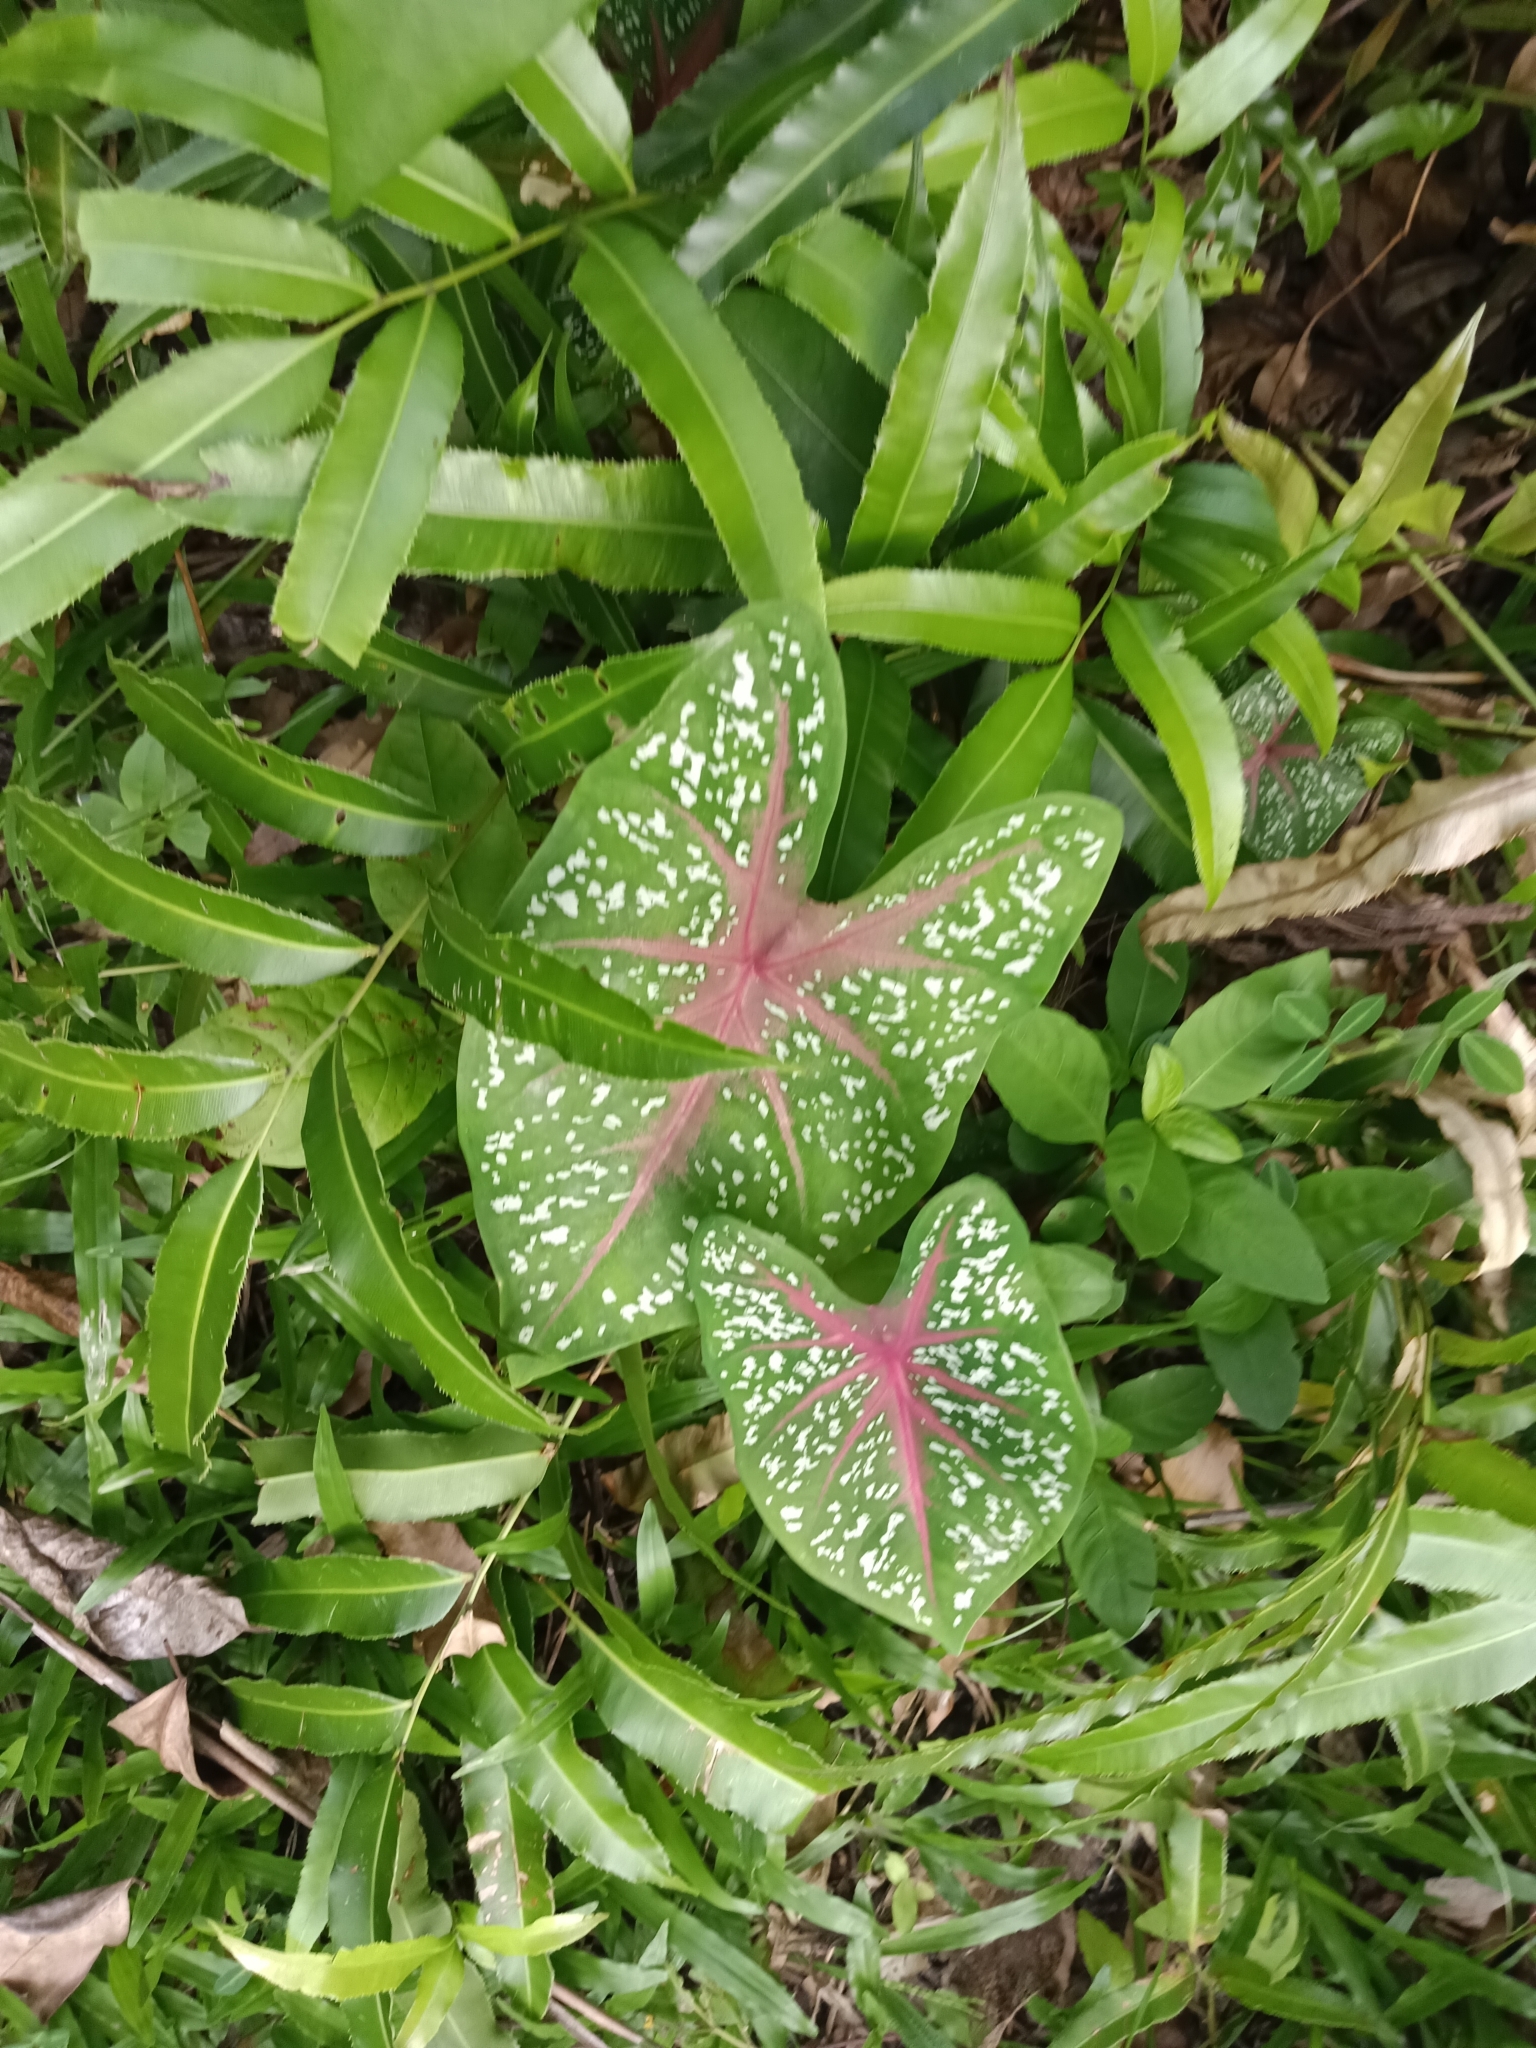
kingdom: Plantae
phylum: Tracheophyta
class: Liliopsida
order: Alismatales
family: Araceae
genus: Caladium
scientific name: Caladium bicolor
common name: Artist's pallet
